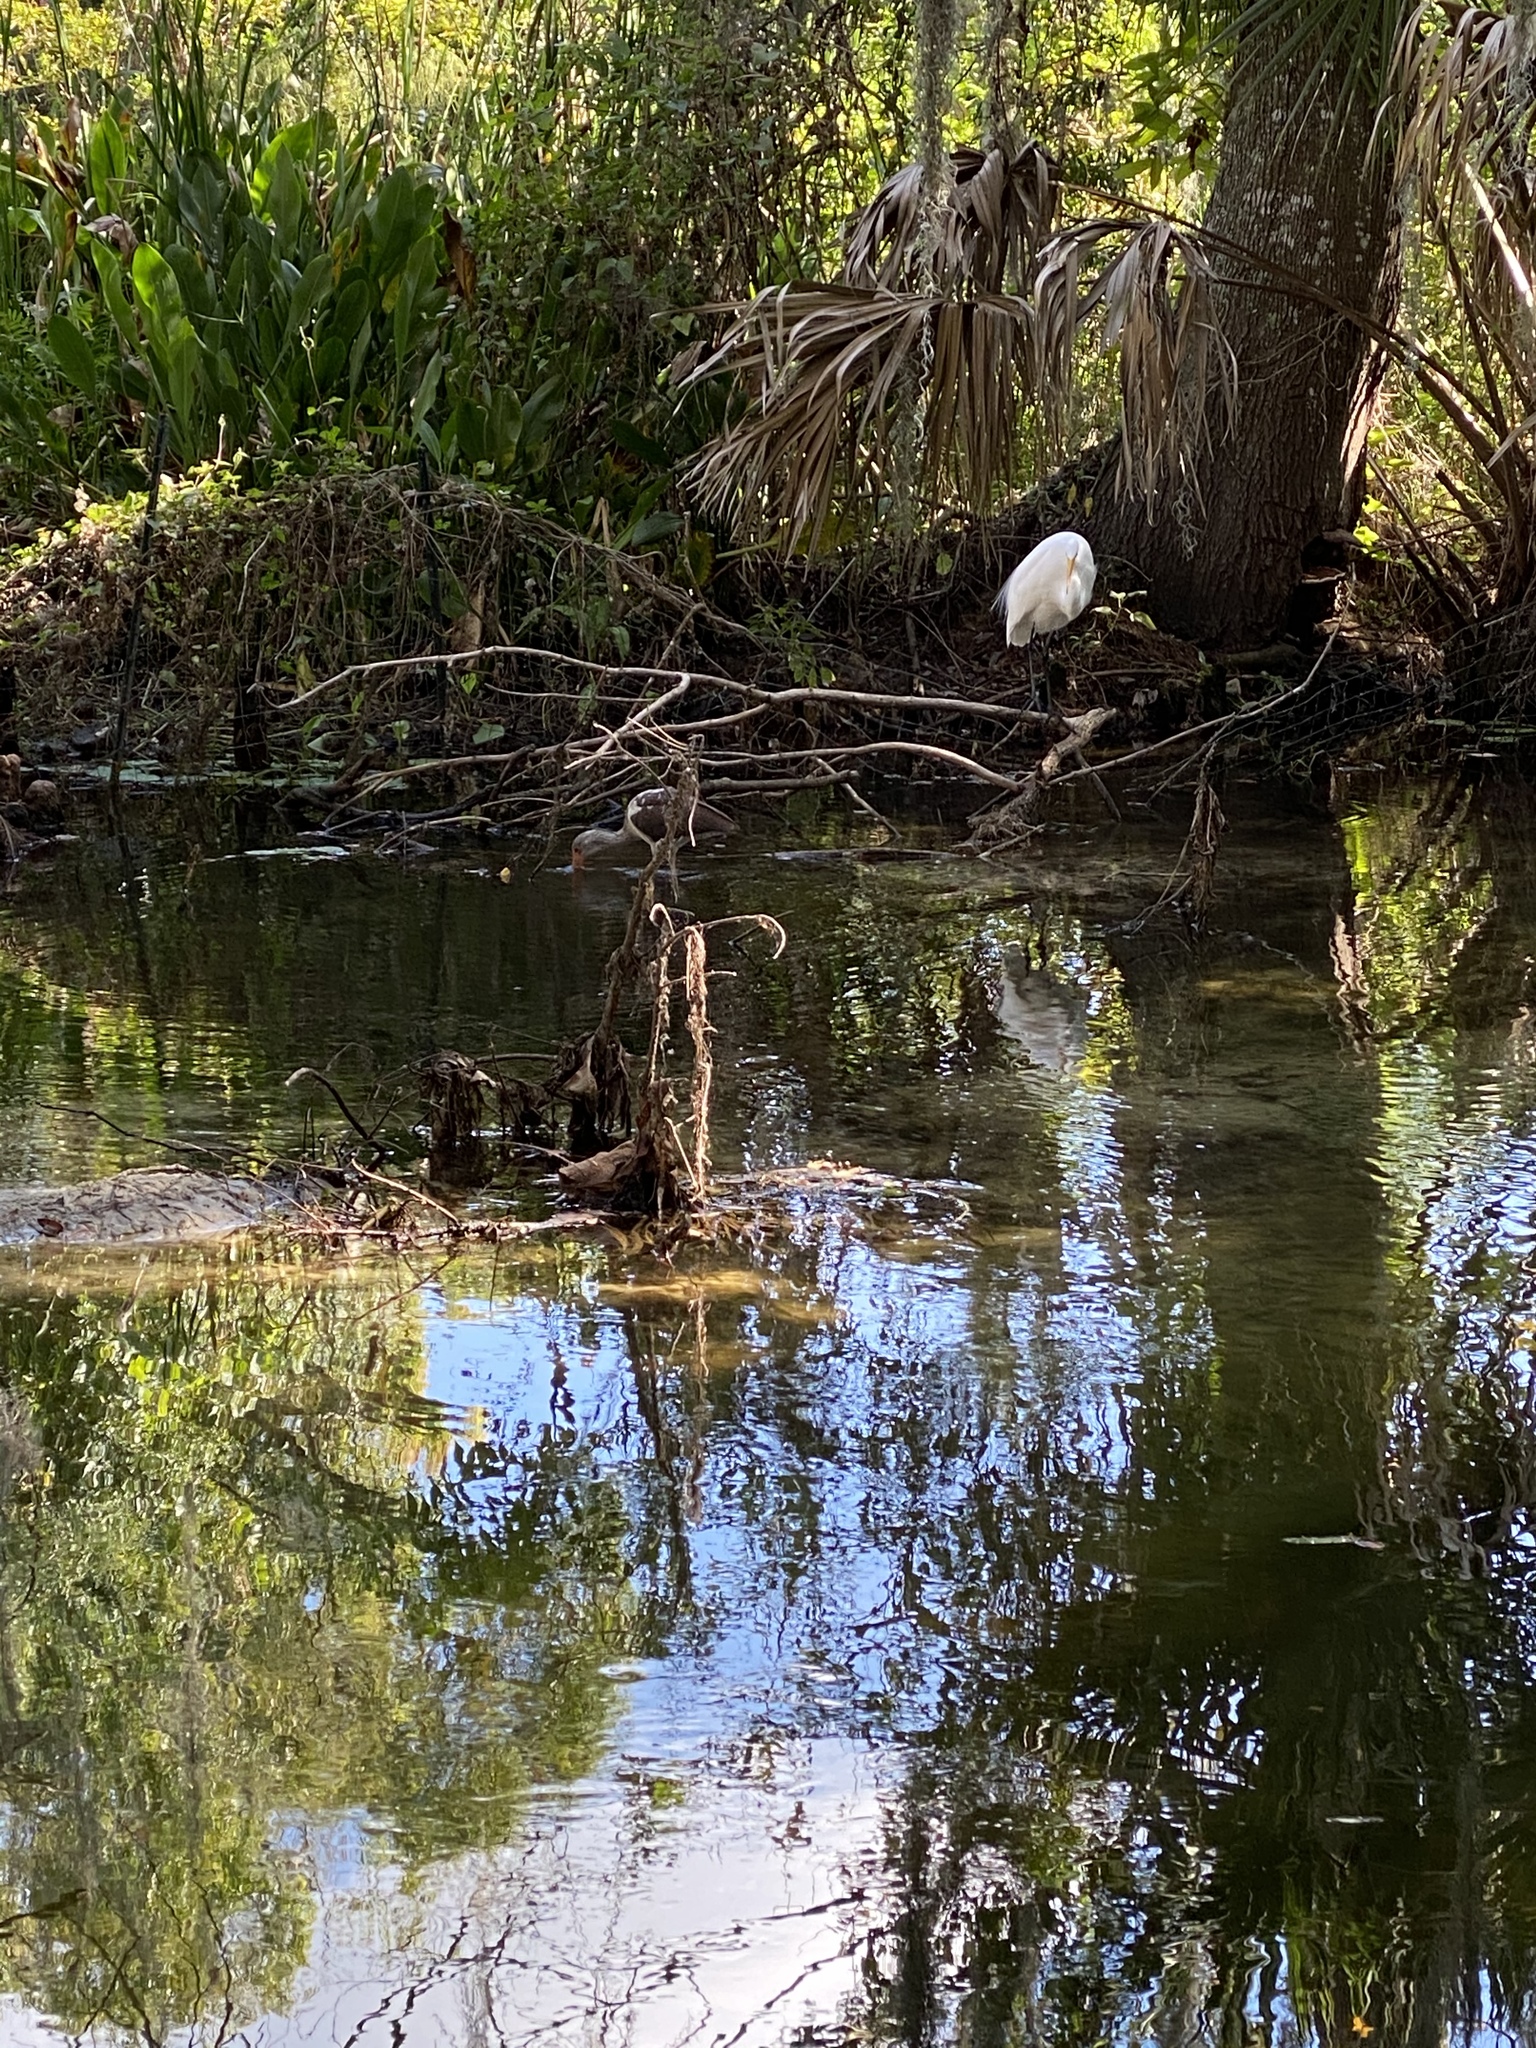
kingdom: Animalia
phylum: Chordata
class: Aves
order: Pelecaniformes
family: Ardeidae
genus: Ardea
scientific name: Ardea alba
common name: Great egret
